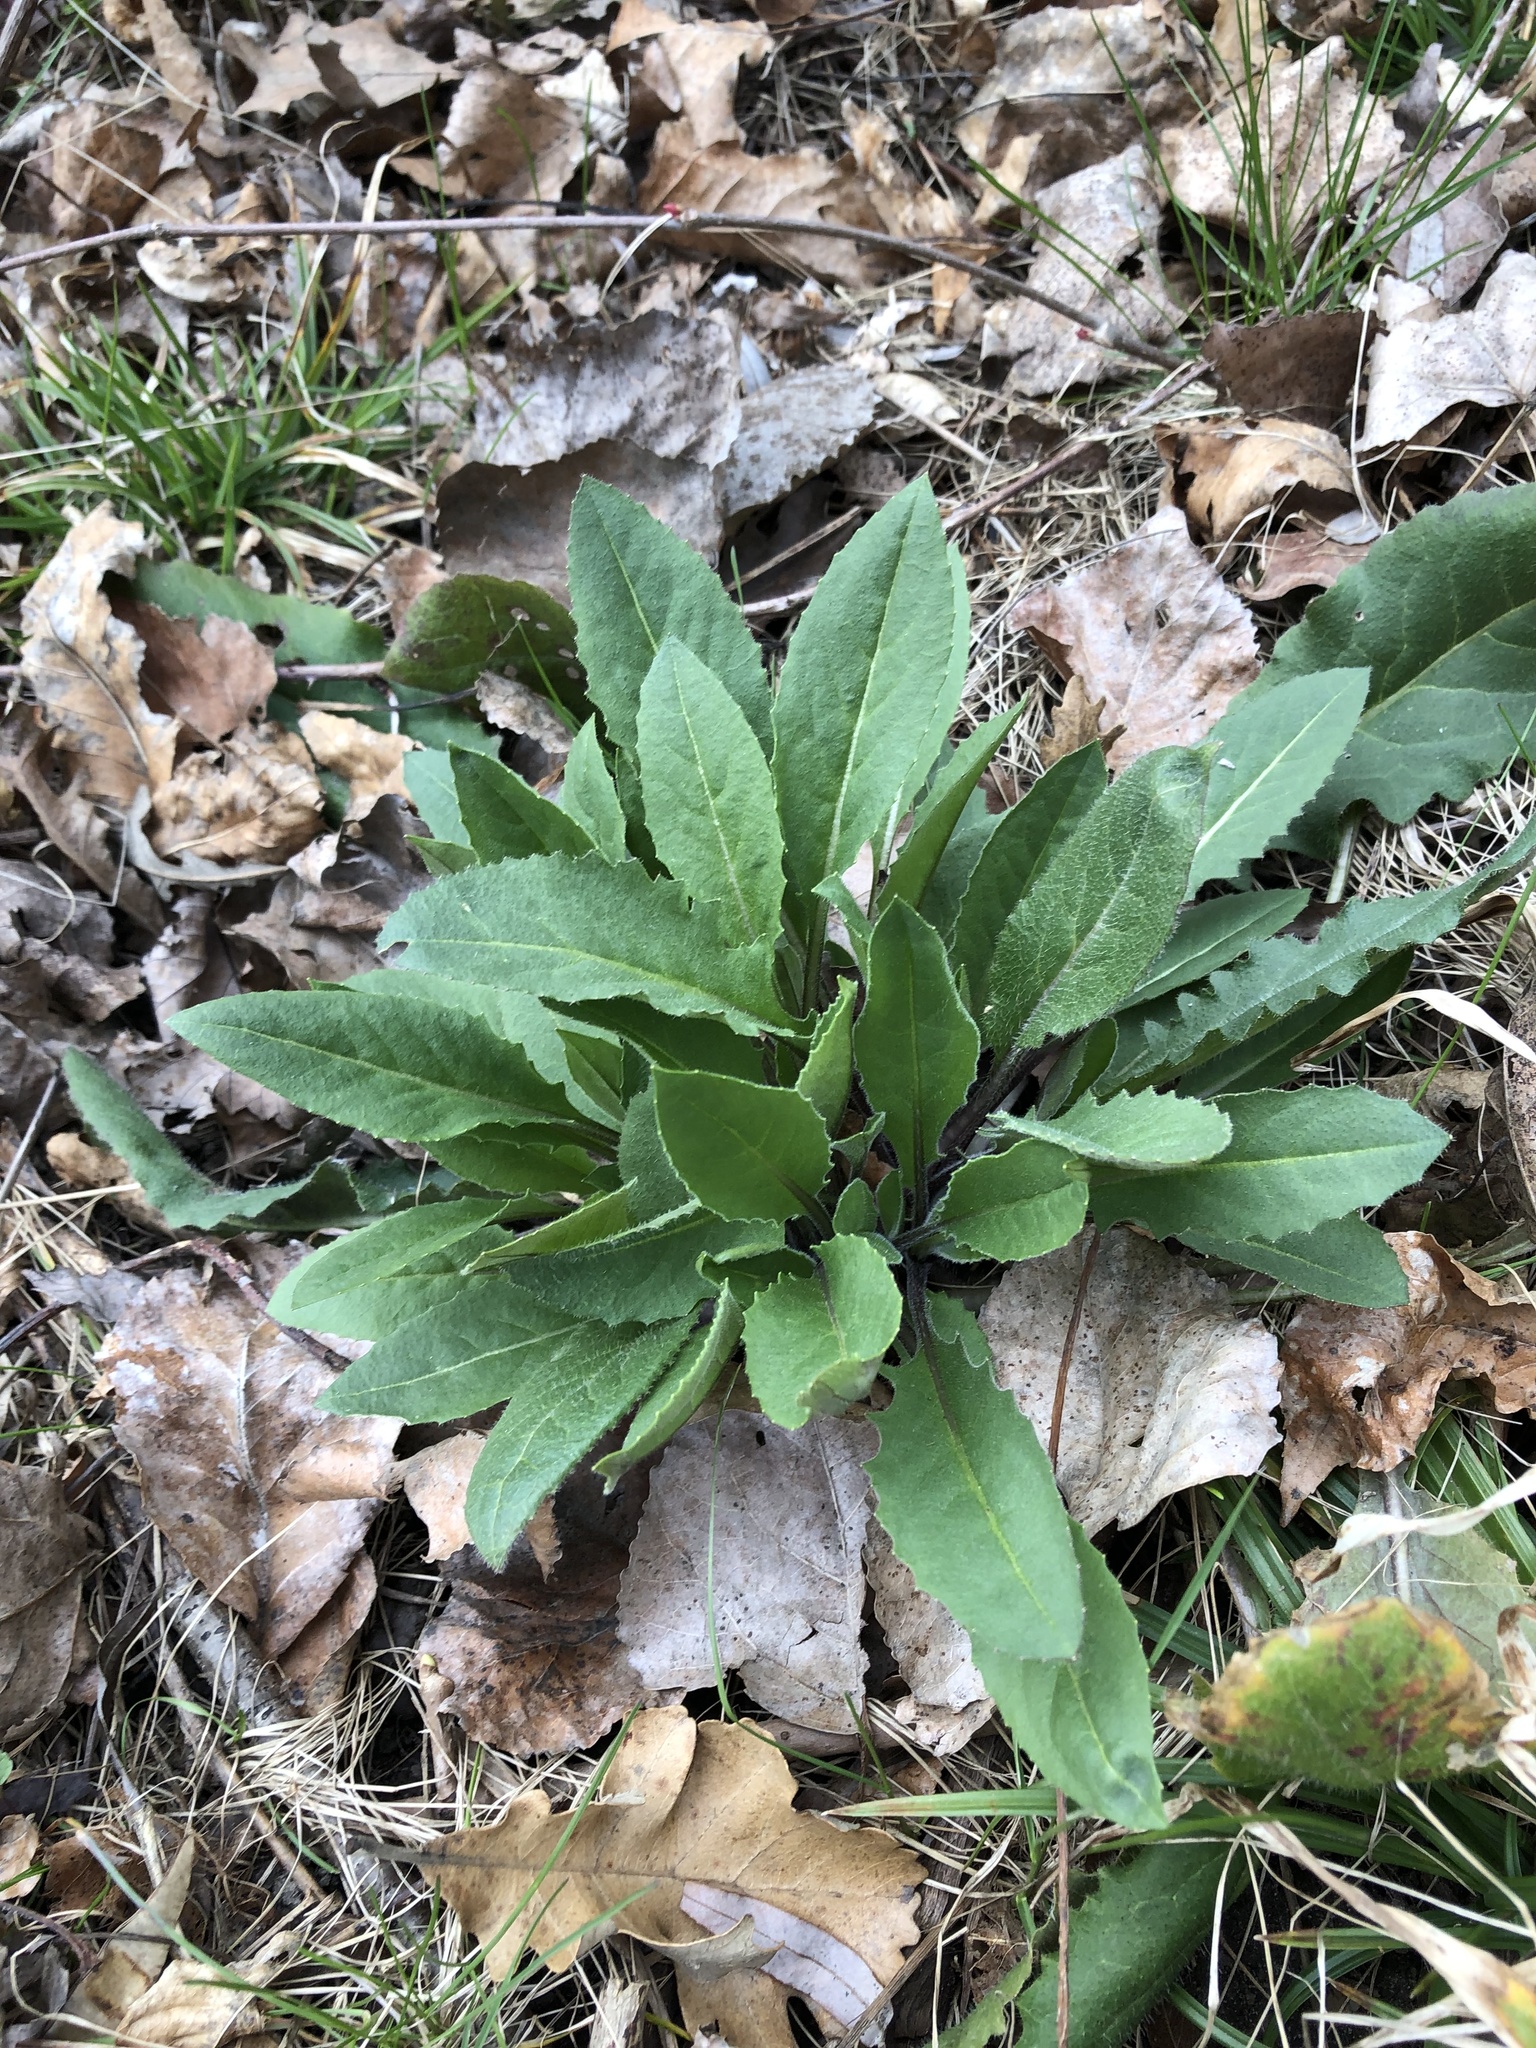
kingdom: Plantae
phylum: Tracheophyta
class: Magnoliopsida
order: Brassicales
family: Brassicaceae
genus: Hesperis
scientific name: Hesperis matronalis
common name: Dame's-violet
